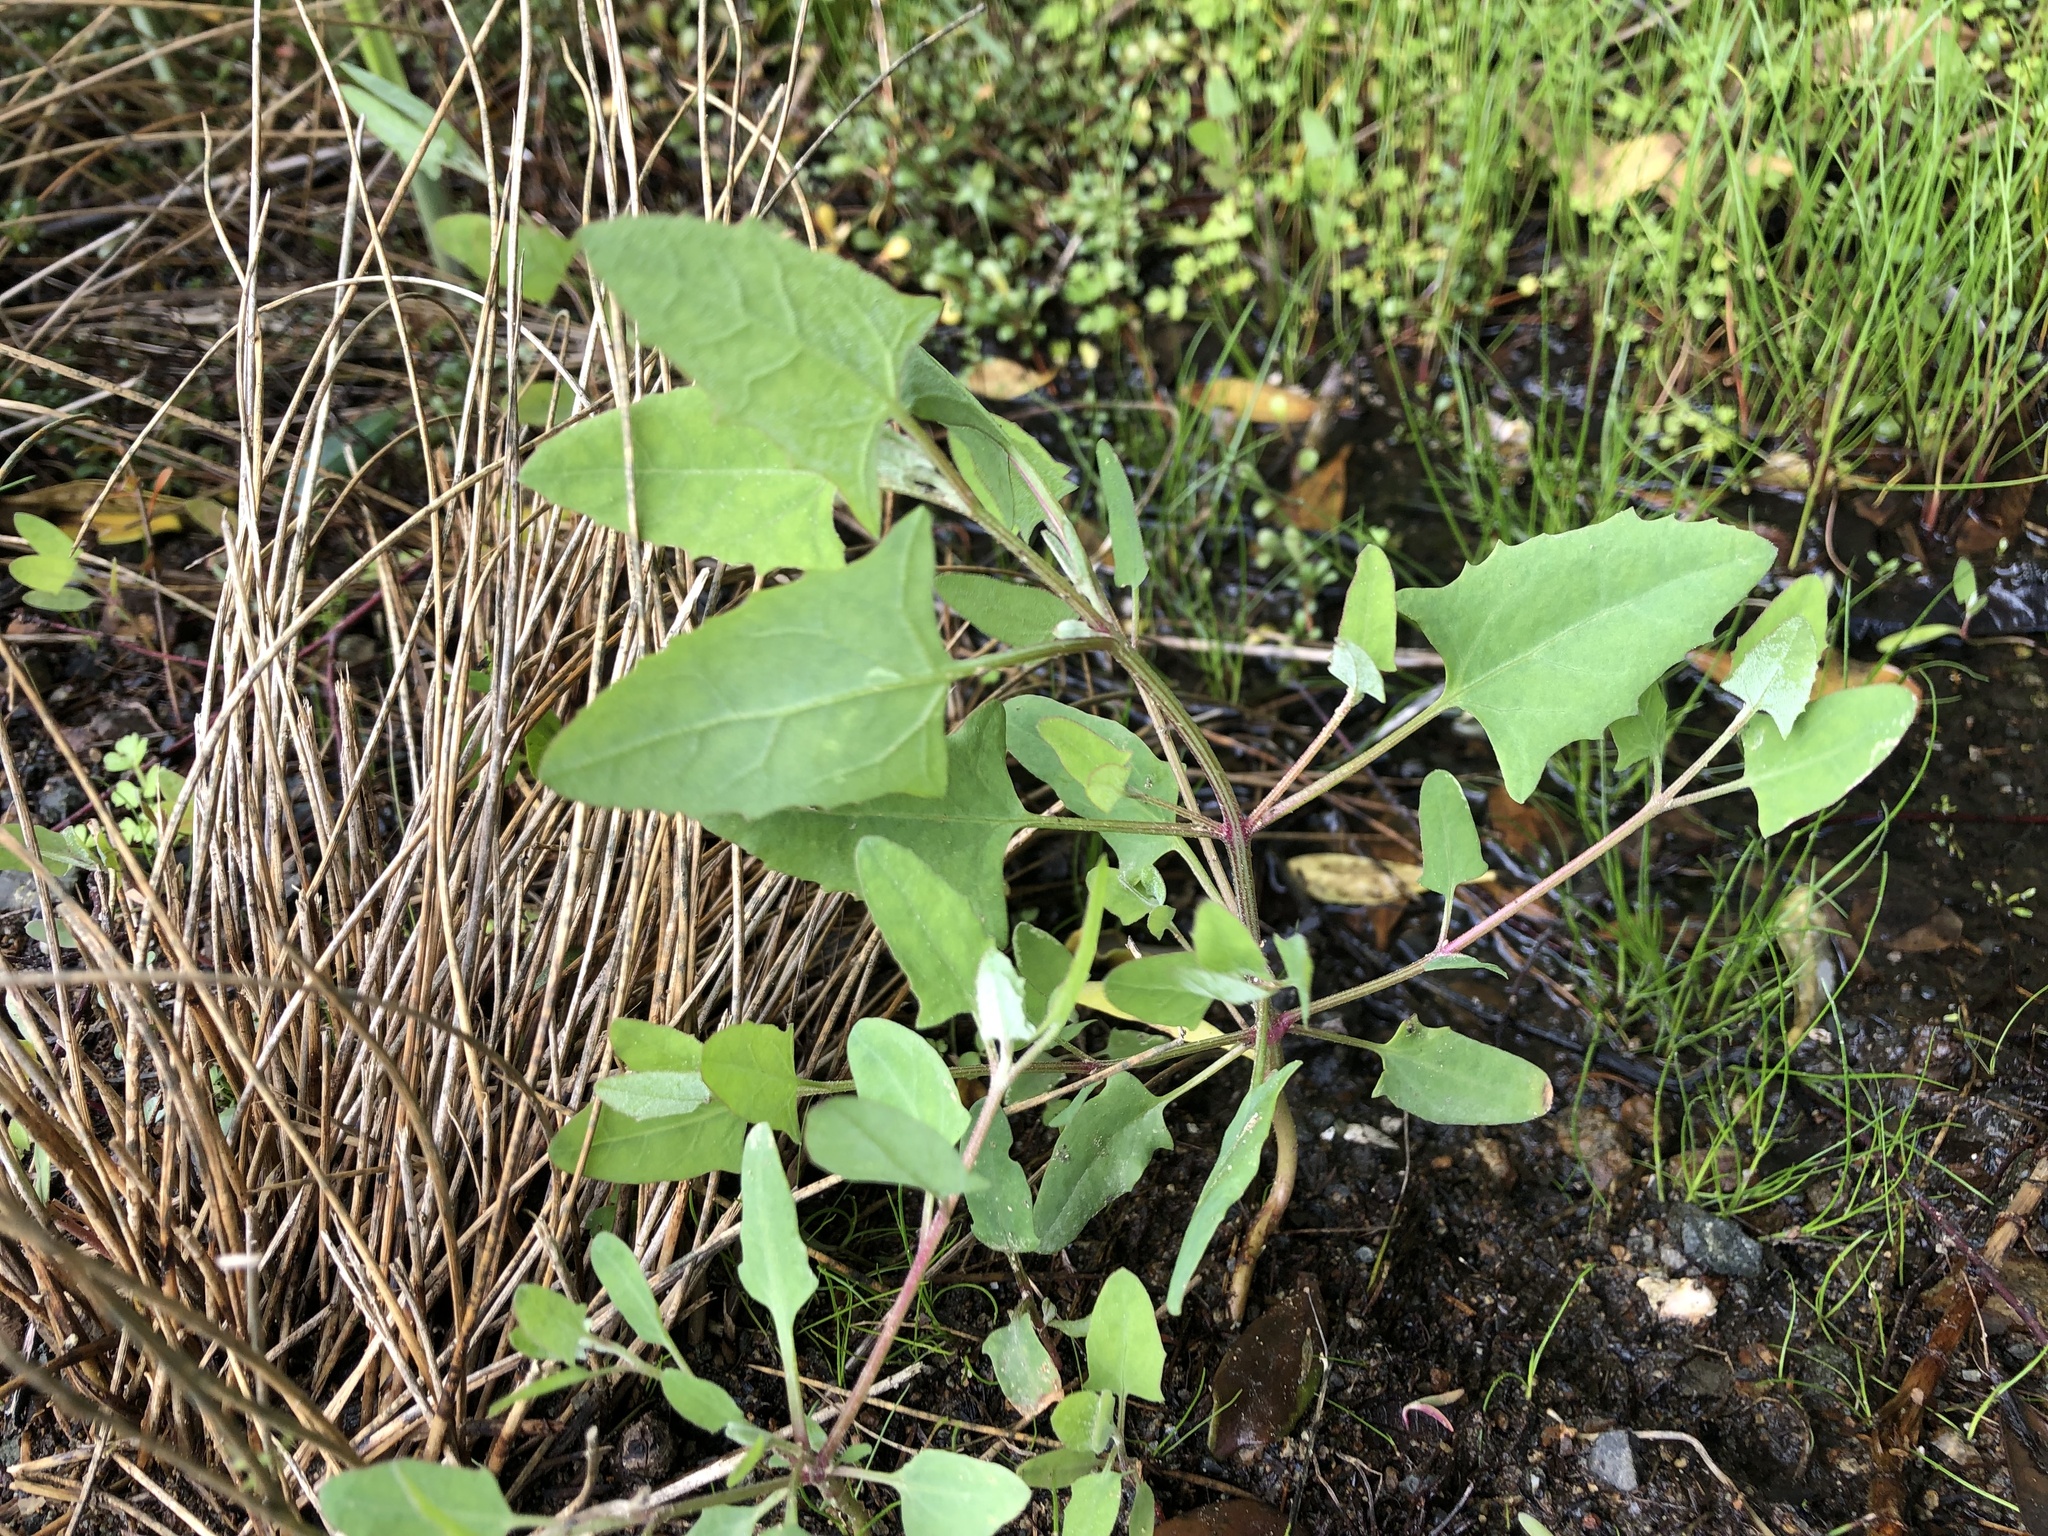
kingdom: Plantae
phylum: Tracheophyta
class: Magnoliopsida
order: Caryophyllales
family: Amaranthaceae
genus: Atriplex
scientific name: Atriplex prostrata
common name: Spear-leaved orache
